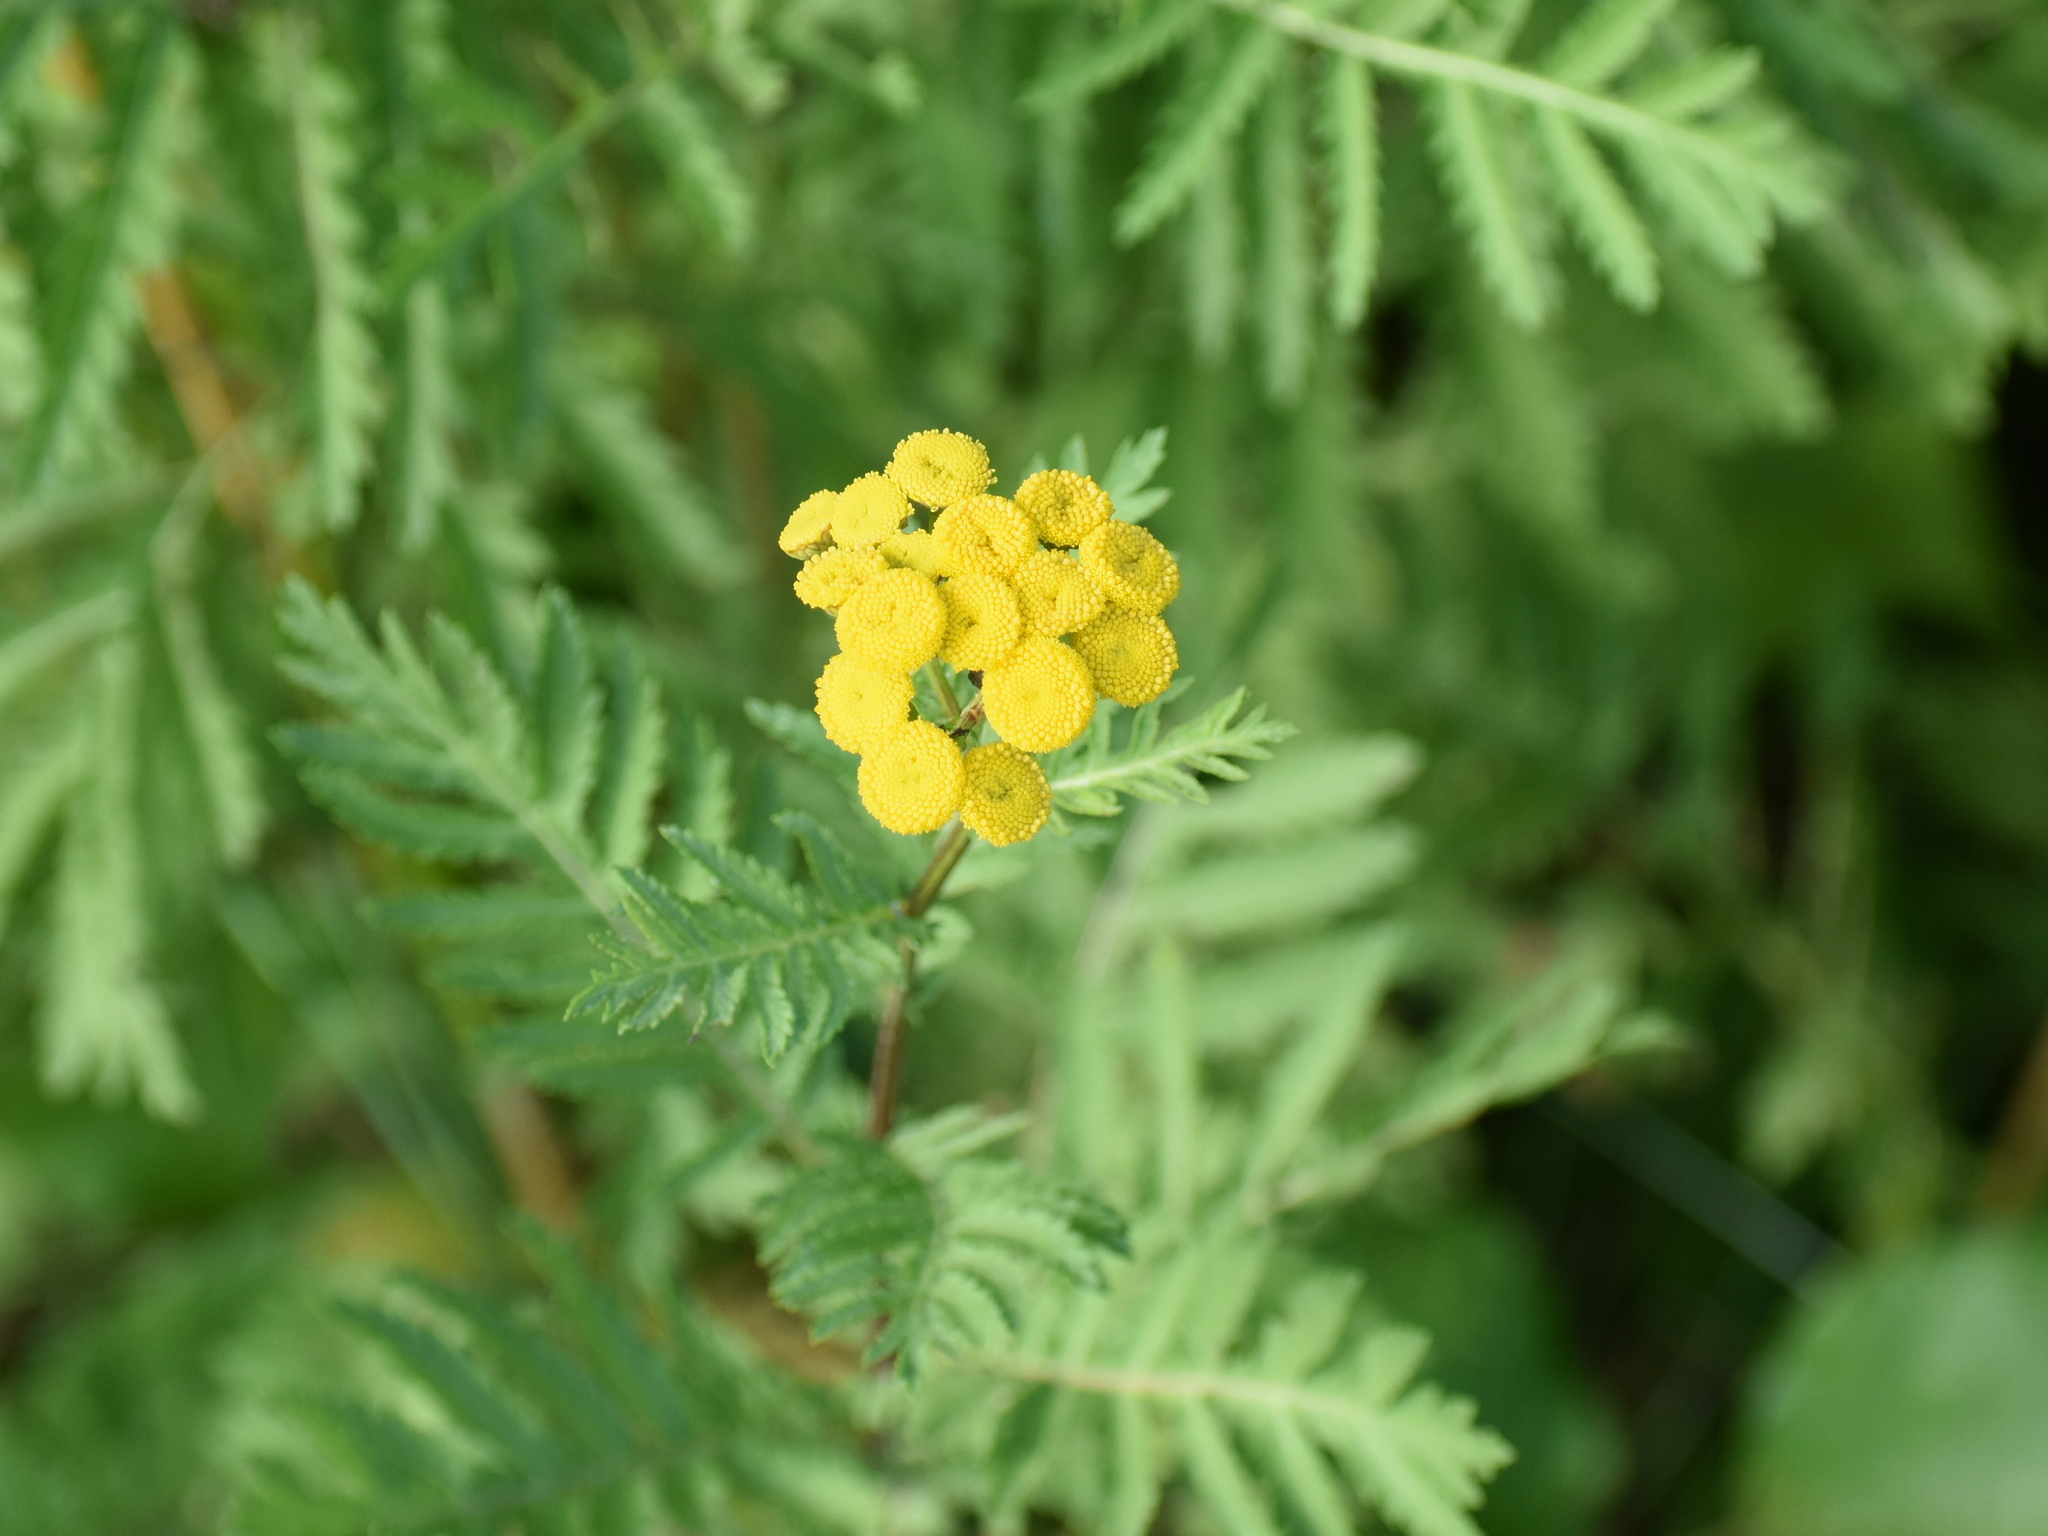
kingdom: Plantae
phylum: Tracheophyta
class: Magnoliopsida
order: Asterales
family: Asteraceae
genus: Tanacetum
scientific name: Tanacetum vulgare
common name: Common tansy
